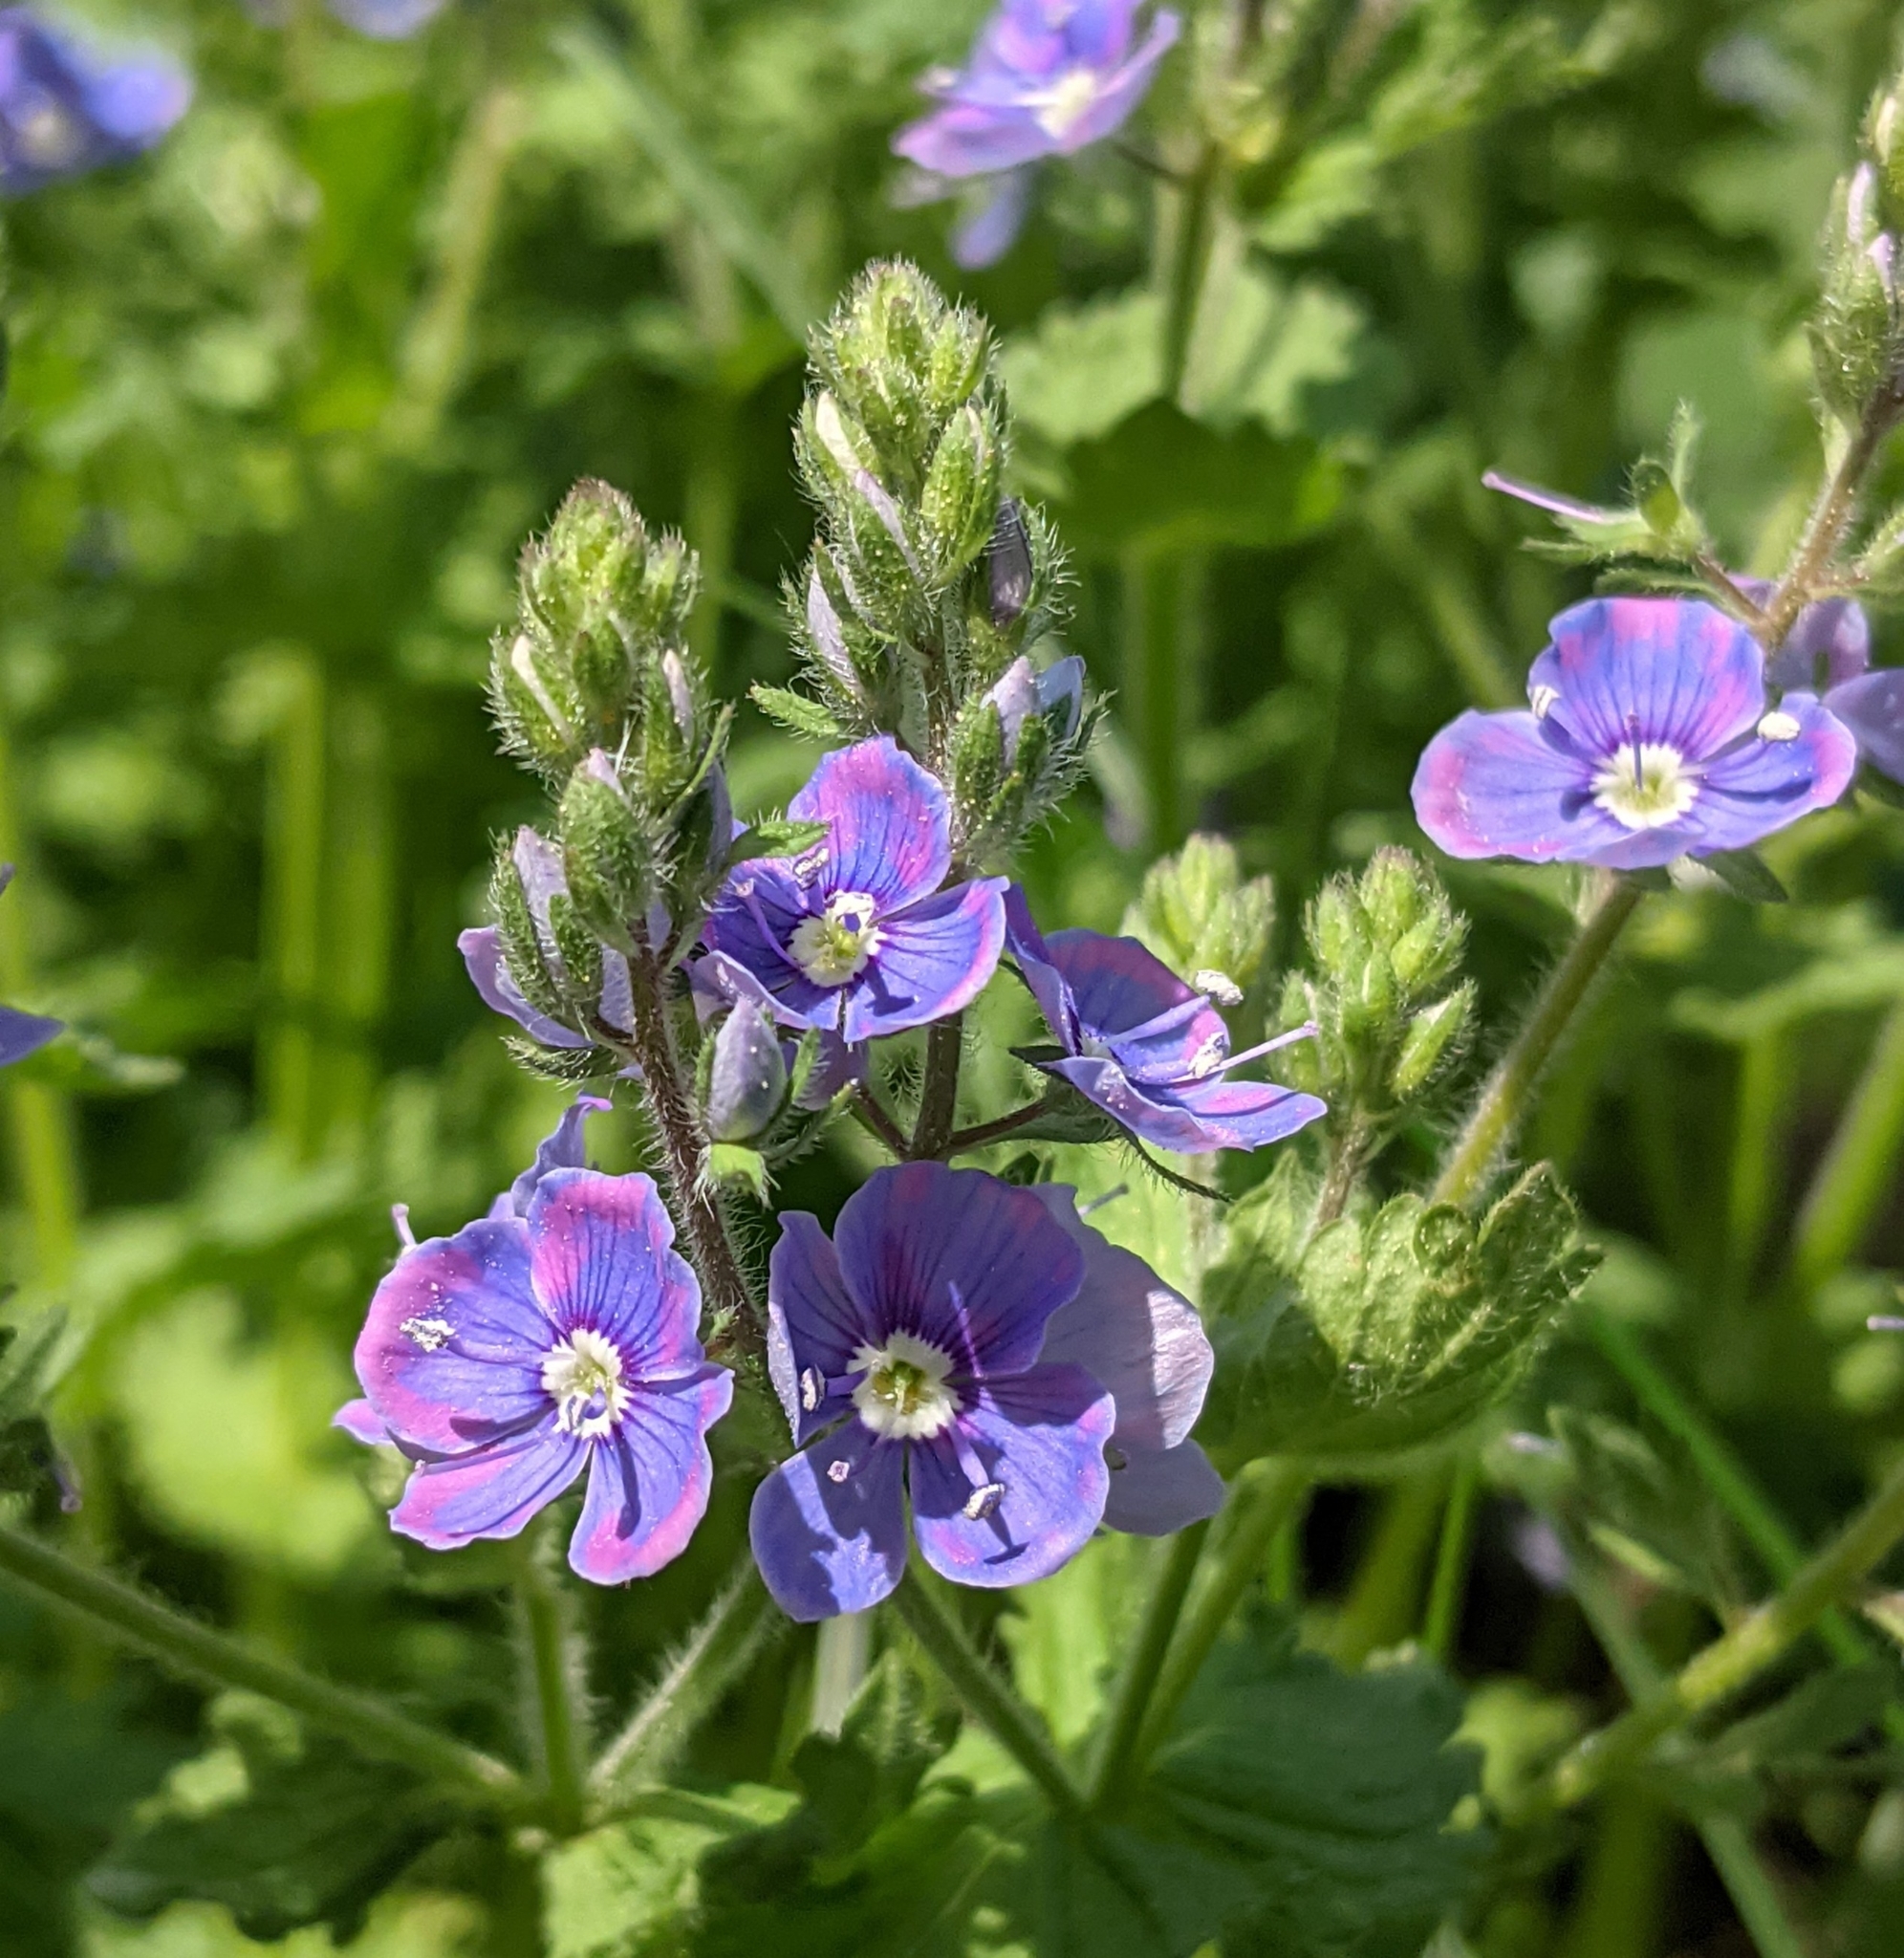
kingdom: Plantae
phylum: Tracheophyta
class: Magnoliopsida
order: Lamiales
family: Plantaginaceae
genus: Veronica
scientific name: Veronica chamaedrys
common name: Germander speedwell
